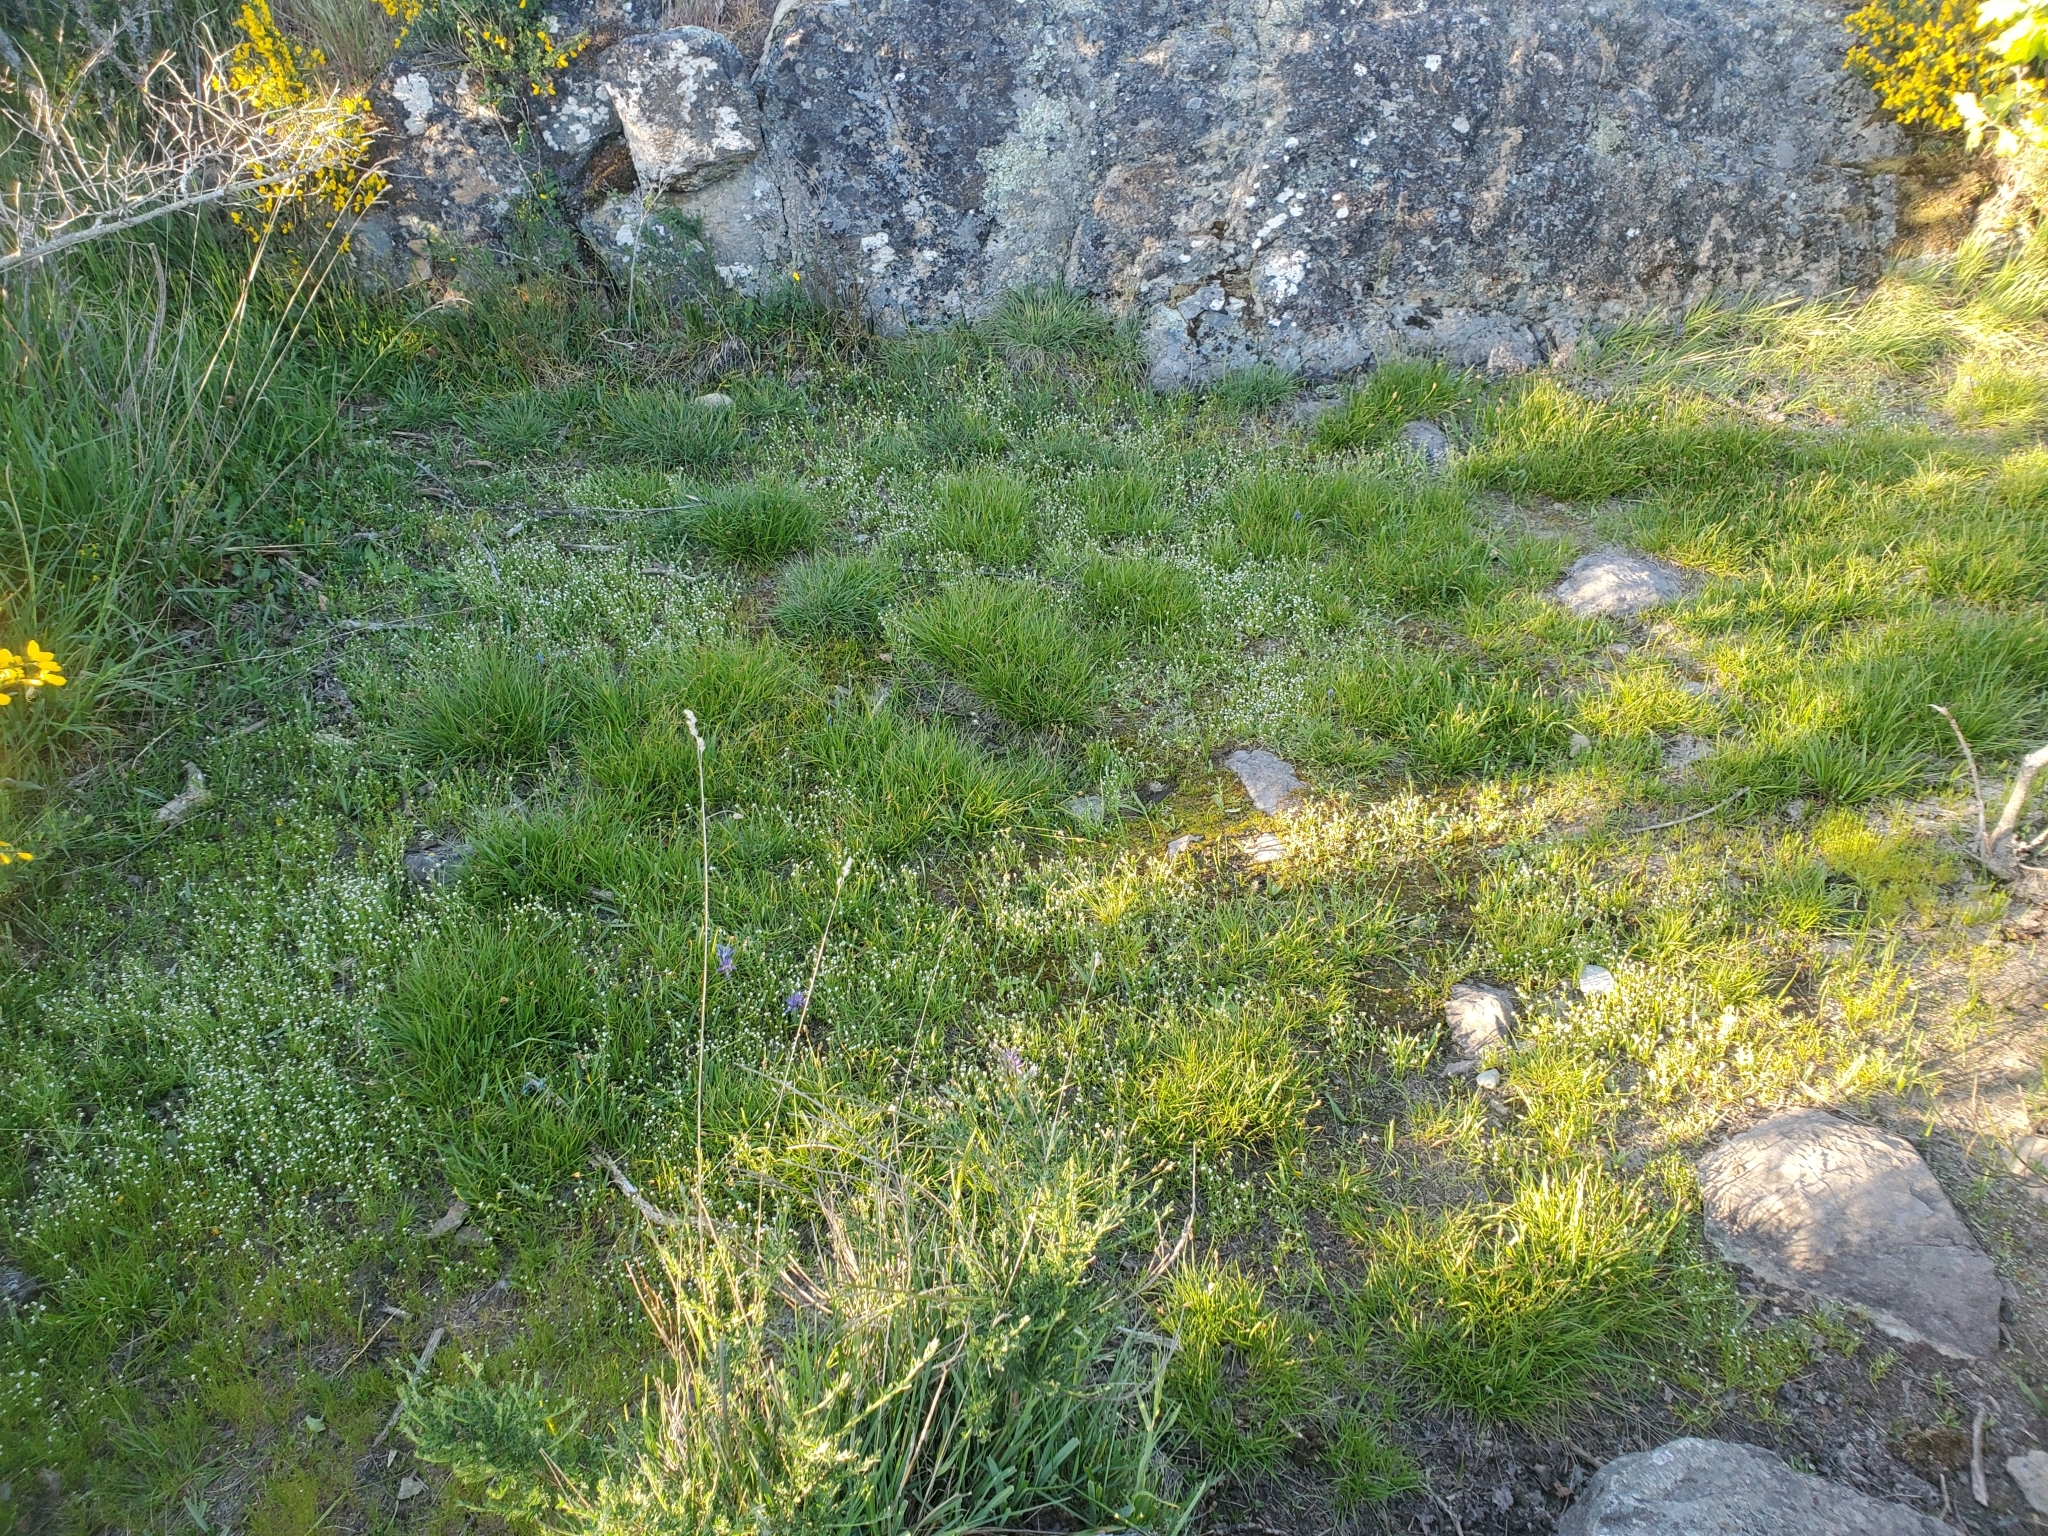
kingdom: Plantae
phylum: Tracheophyta
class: Magnoliopsida
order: Boraginales
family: Boraginaceae
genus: Plagiobothrys
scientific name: Plagiobothrys scouleri
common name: White forget-me-not
